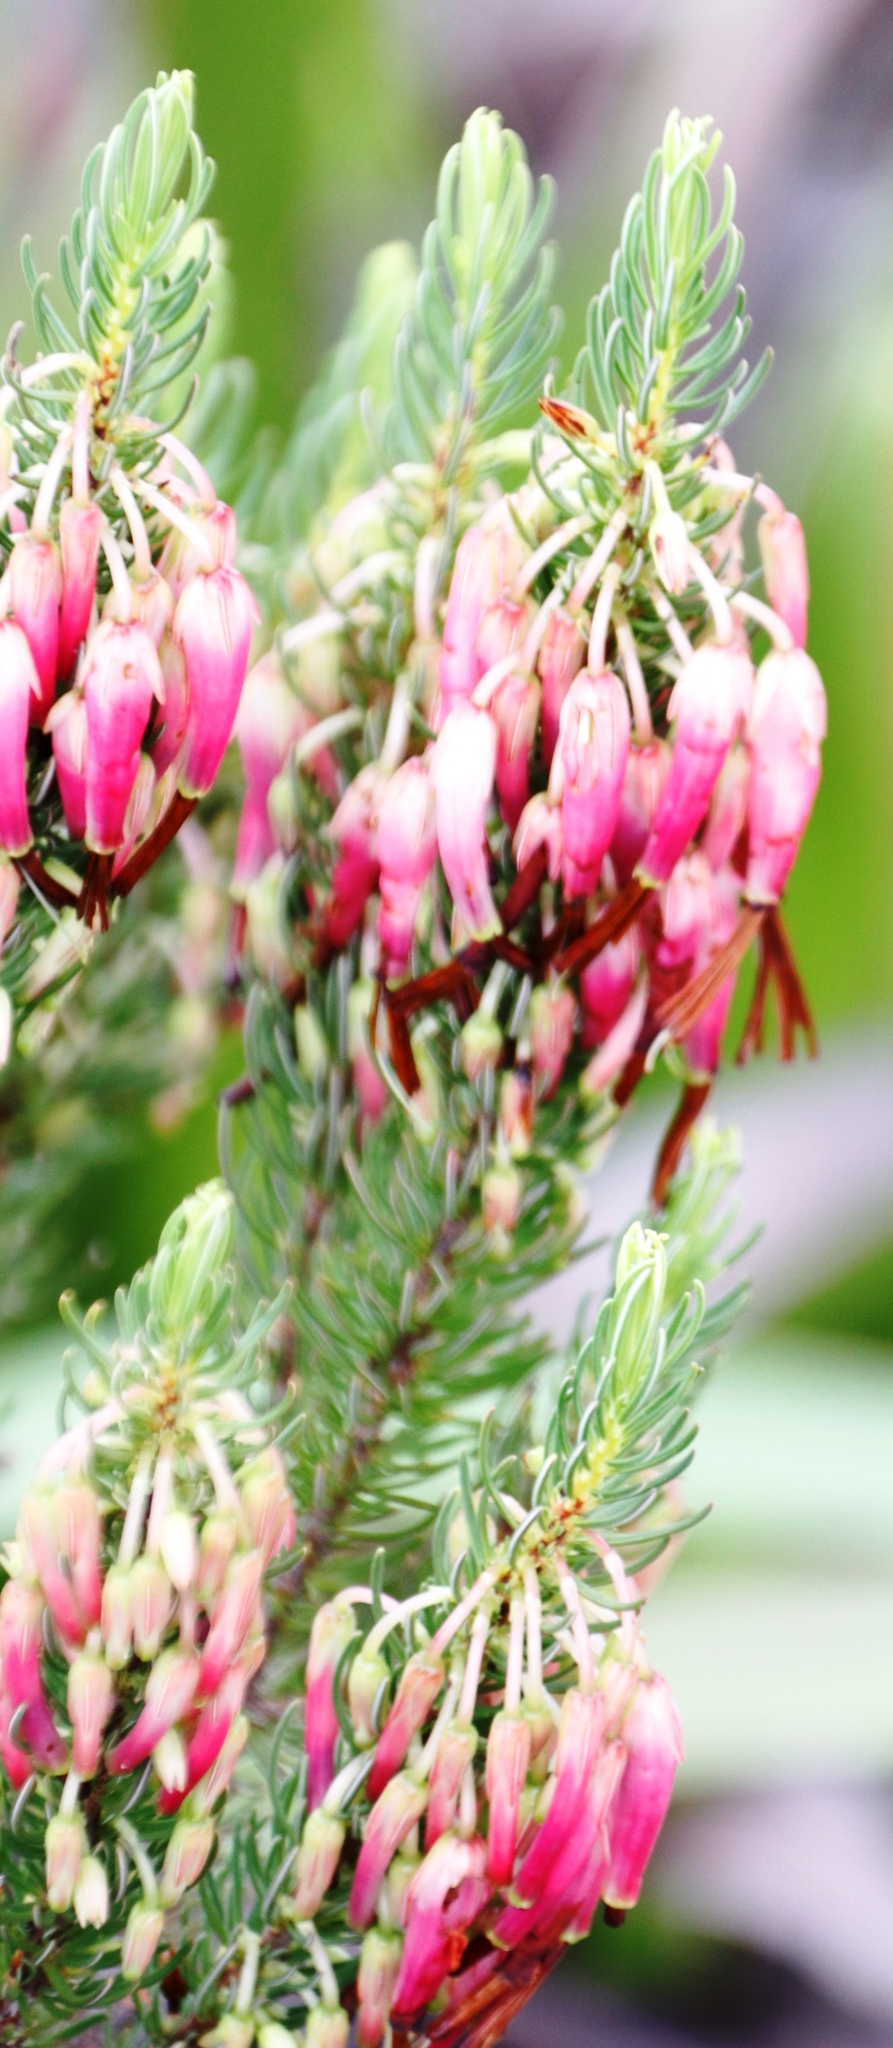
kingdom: Plantae
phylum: Tracheophyta
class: Magnoliopsida
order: Ericales
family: Ericaceae
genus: Erica
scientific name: Erica plukenetii
